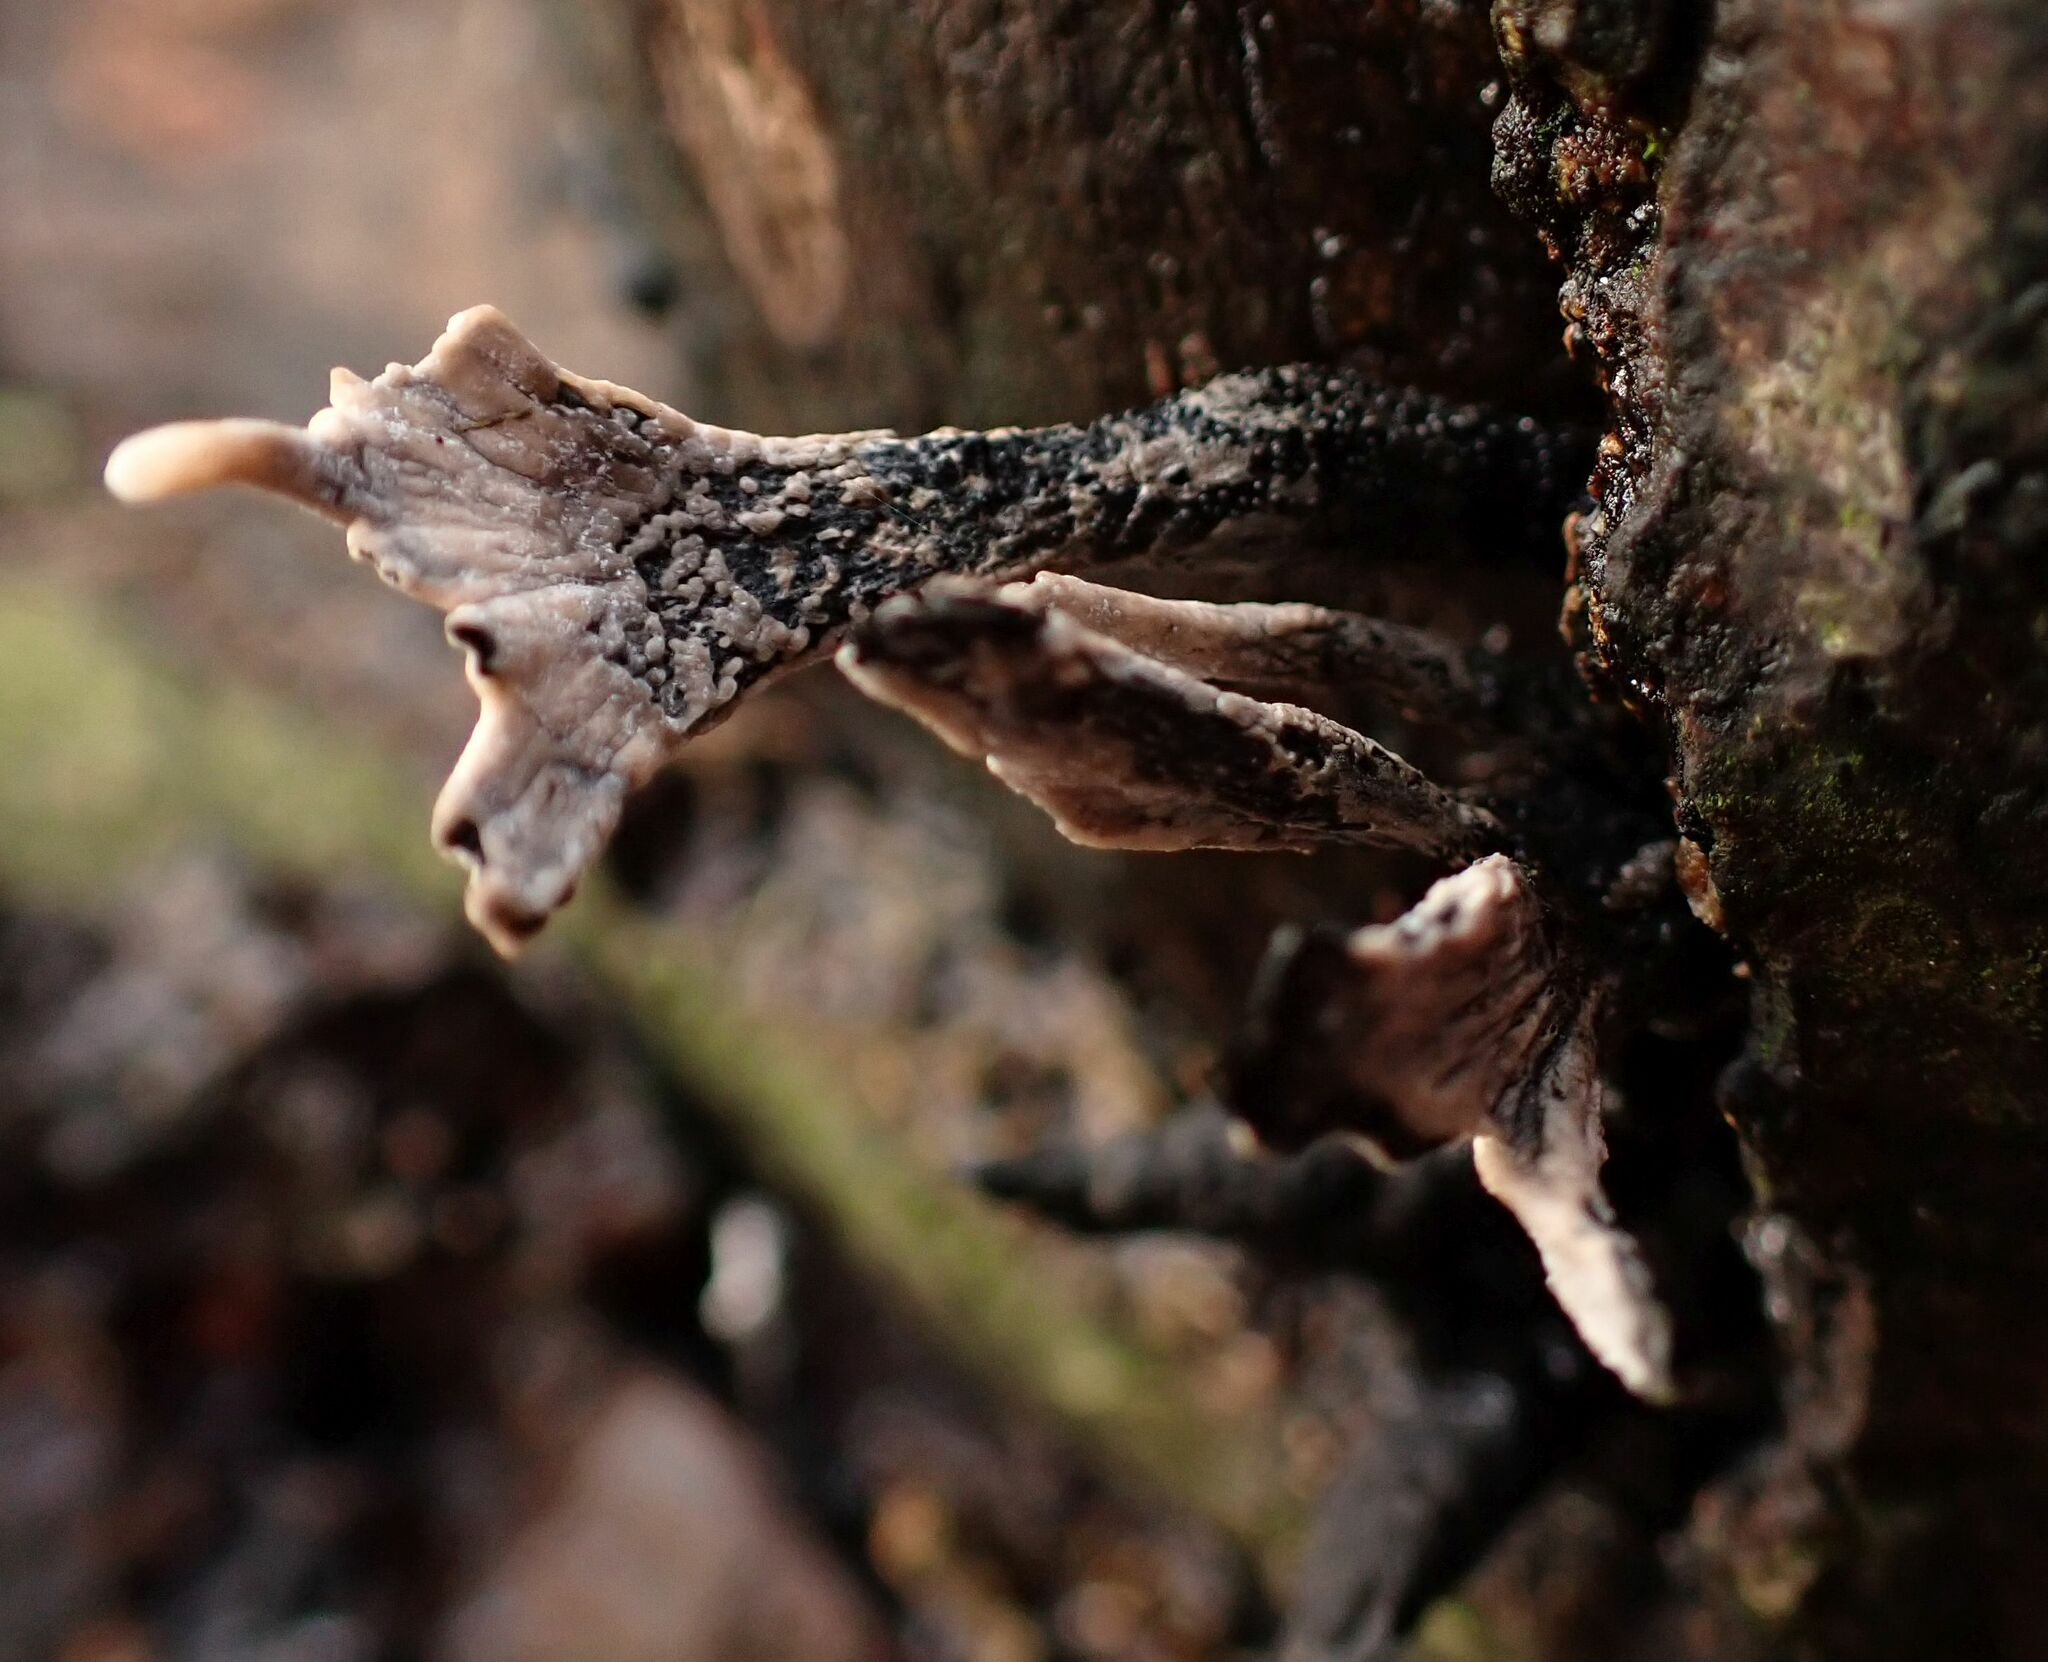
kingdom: Fungi
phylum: Ascomycota
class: Sordariomycetes
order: Xylariales
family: Xylariaceae
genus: Xylaria
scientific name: Xylaria hypoxylon
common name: Candle-snuff fungus
